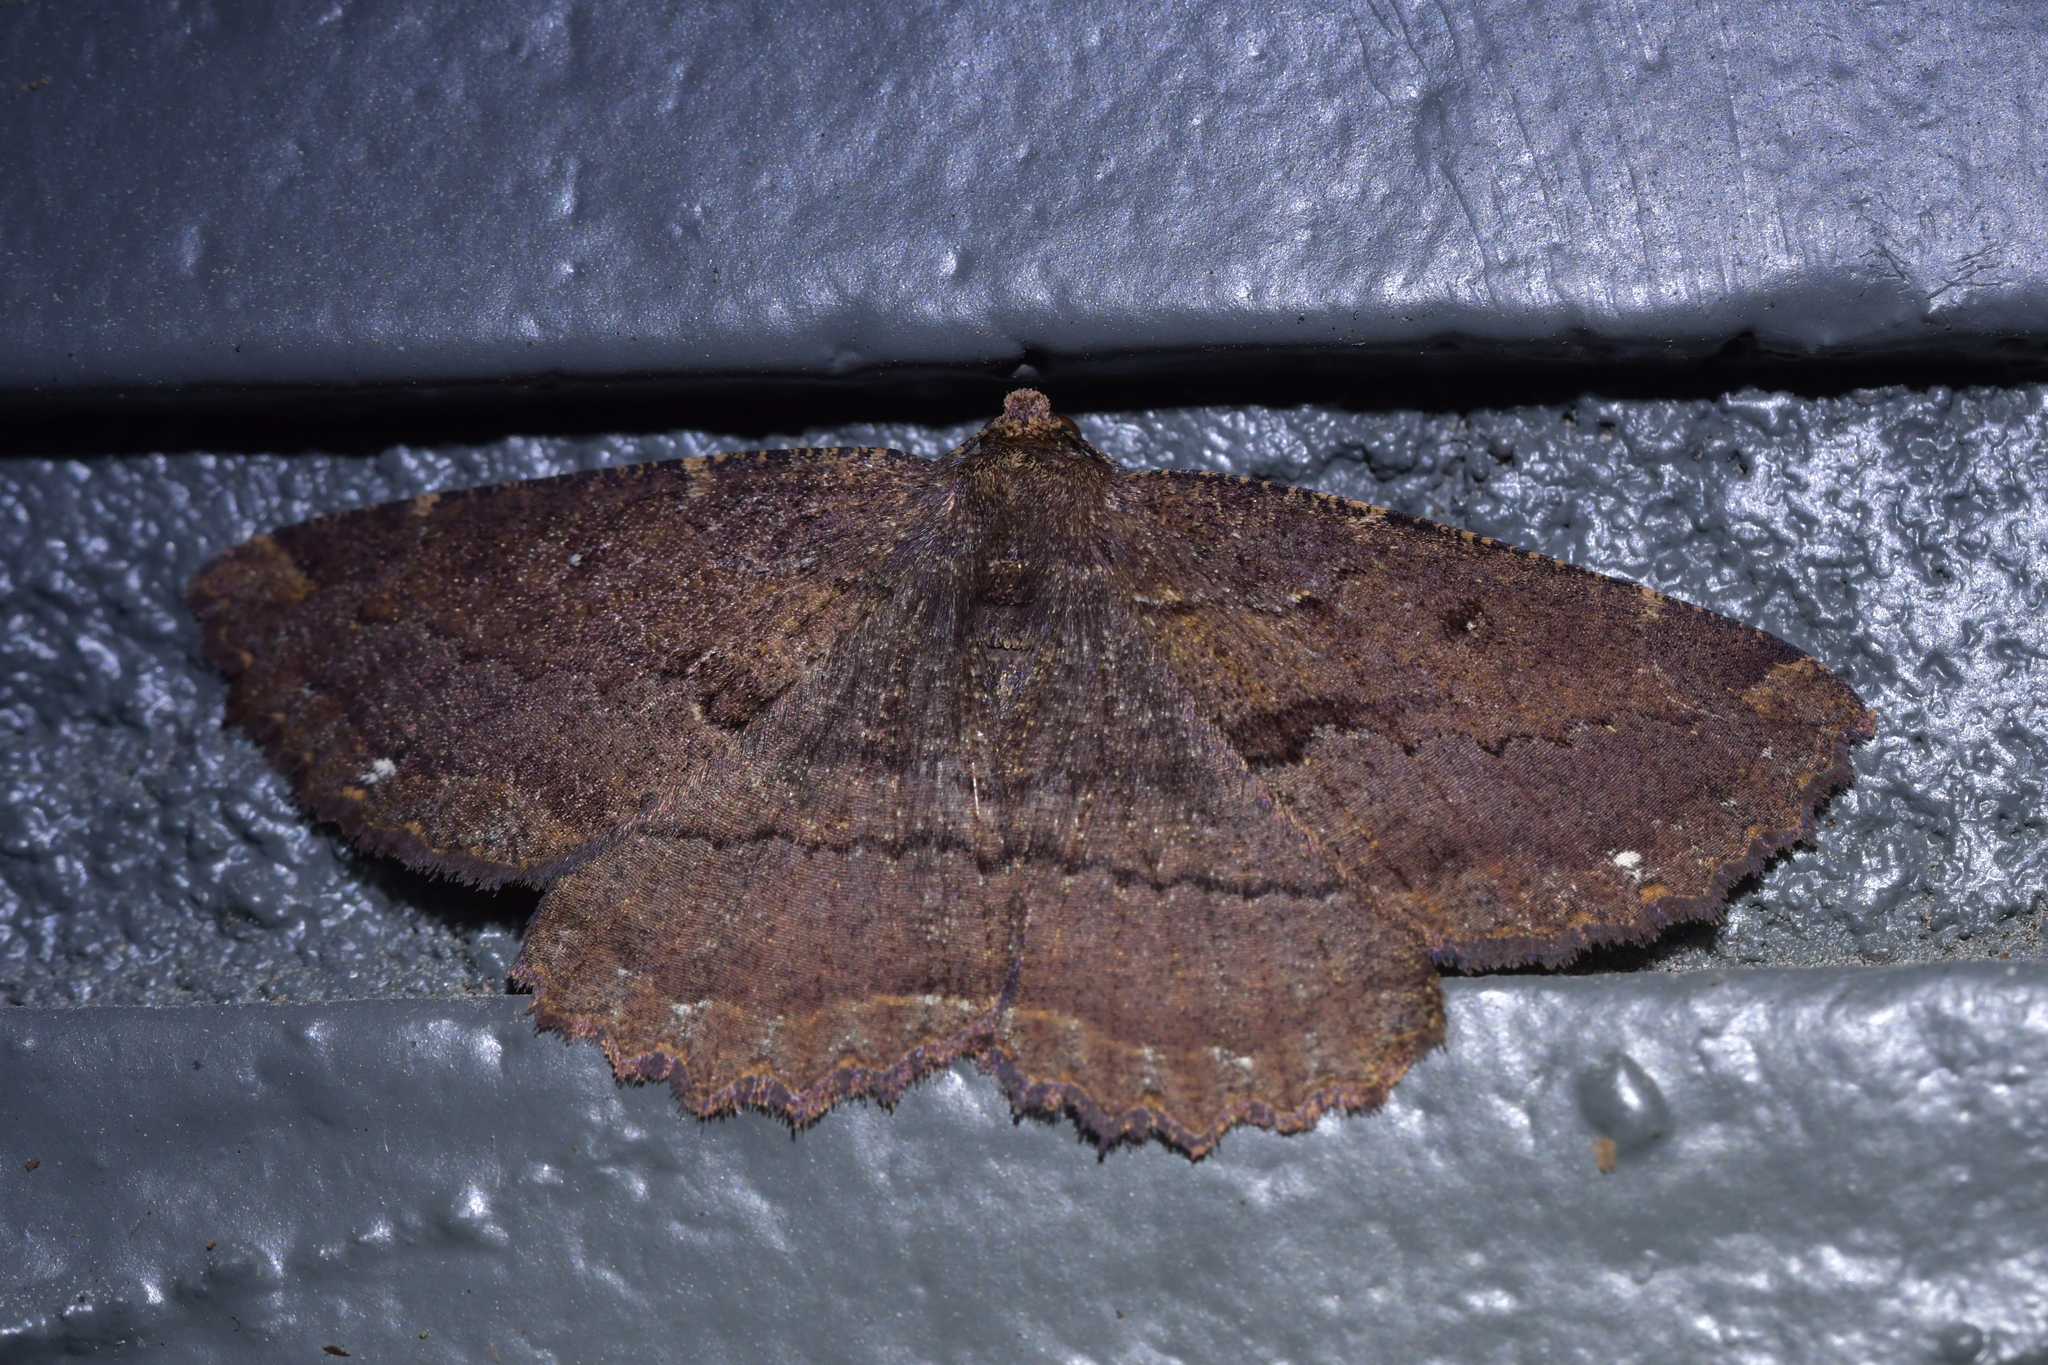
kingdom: Animalia
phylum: Arthropoda
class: Insecta
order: Lepidoptera
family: Geometridae
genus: Gellonia
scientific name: Gellonia dejectaria
